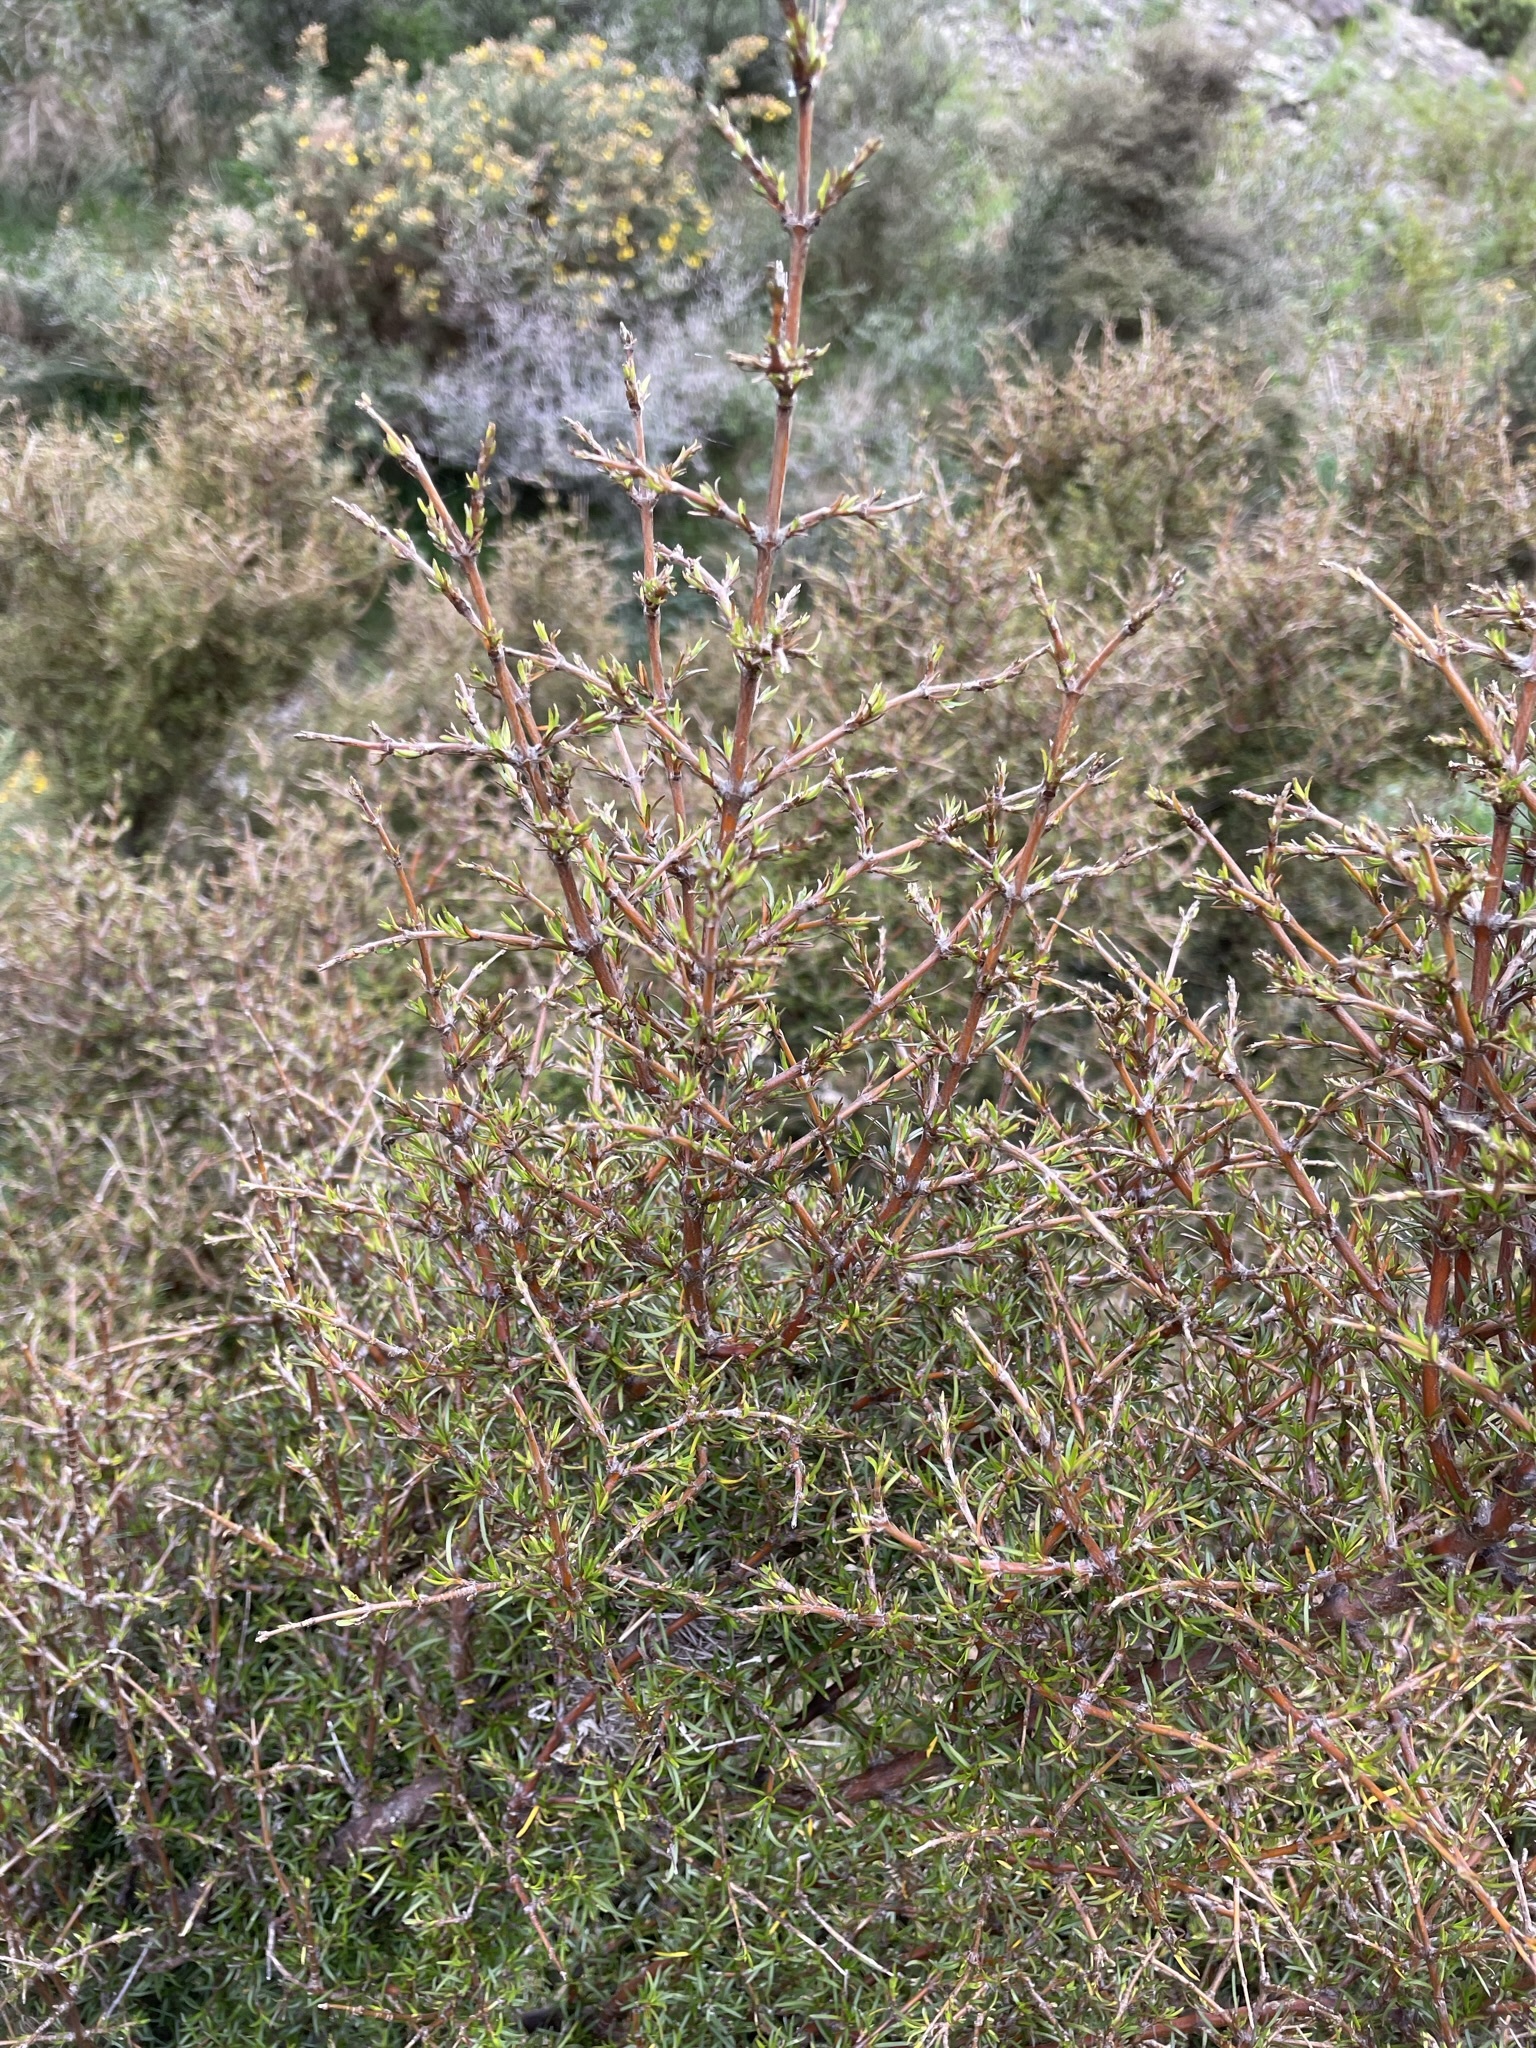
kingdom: Plantae
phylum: Tracheophyta
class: Magnoliopsida
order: Gentianales
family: Rubiaceae
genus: Coprosma
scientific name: Coprosma rugosa
